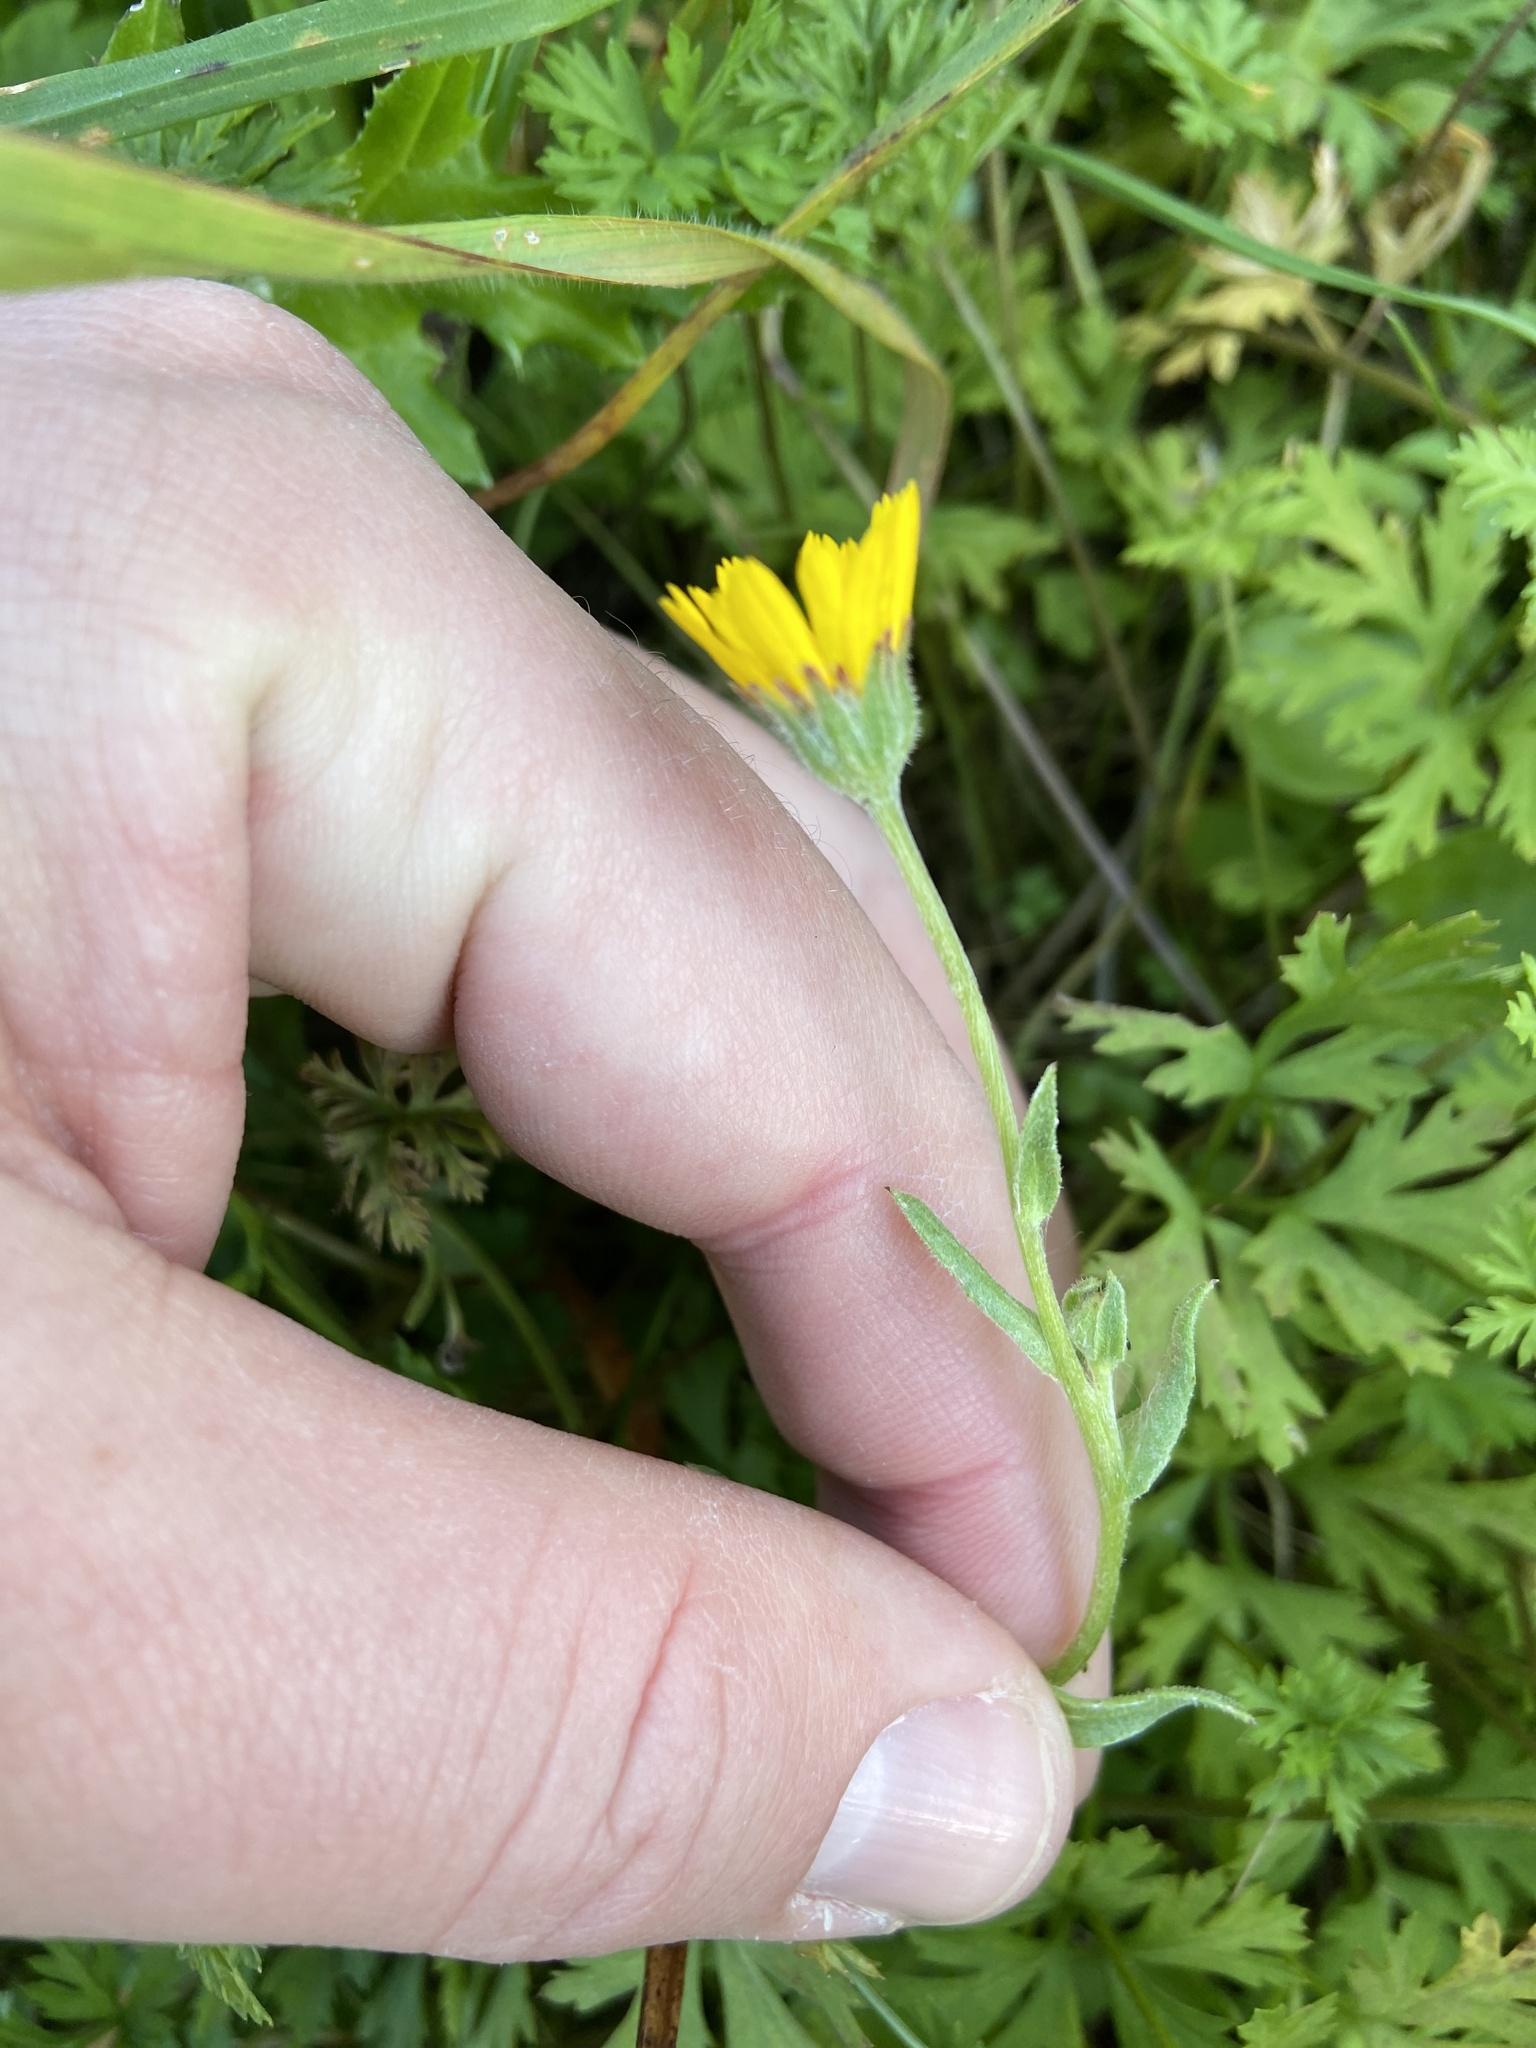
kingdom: Plantae
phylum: Tracheophyta
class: Magnoliopsida
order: Asterales
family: Asteraceae
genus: Calendula
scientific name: Calendula arvensis
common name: Field marigold
